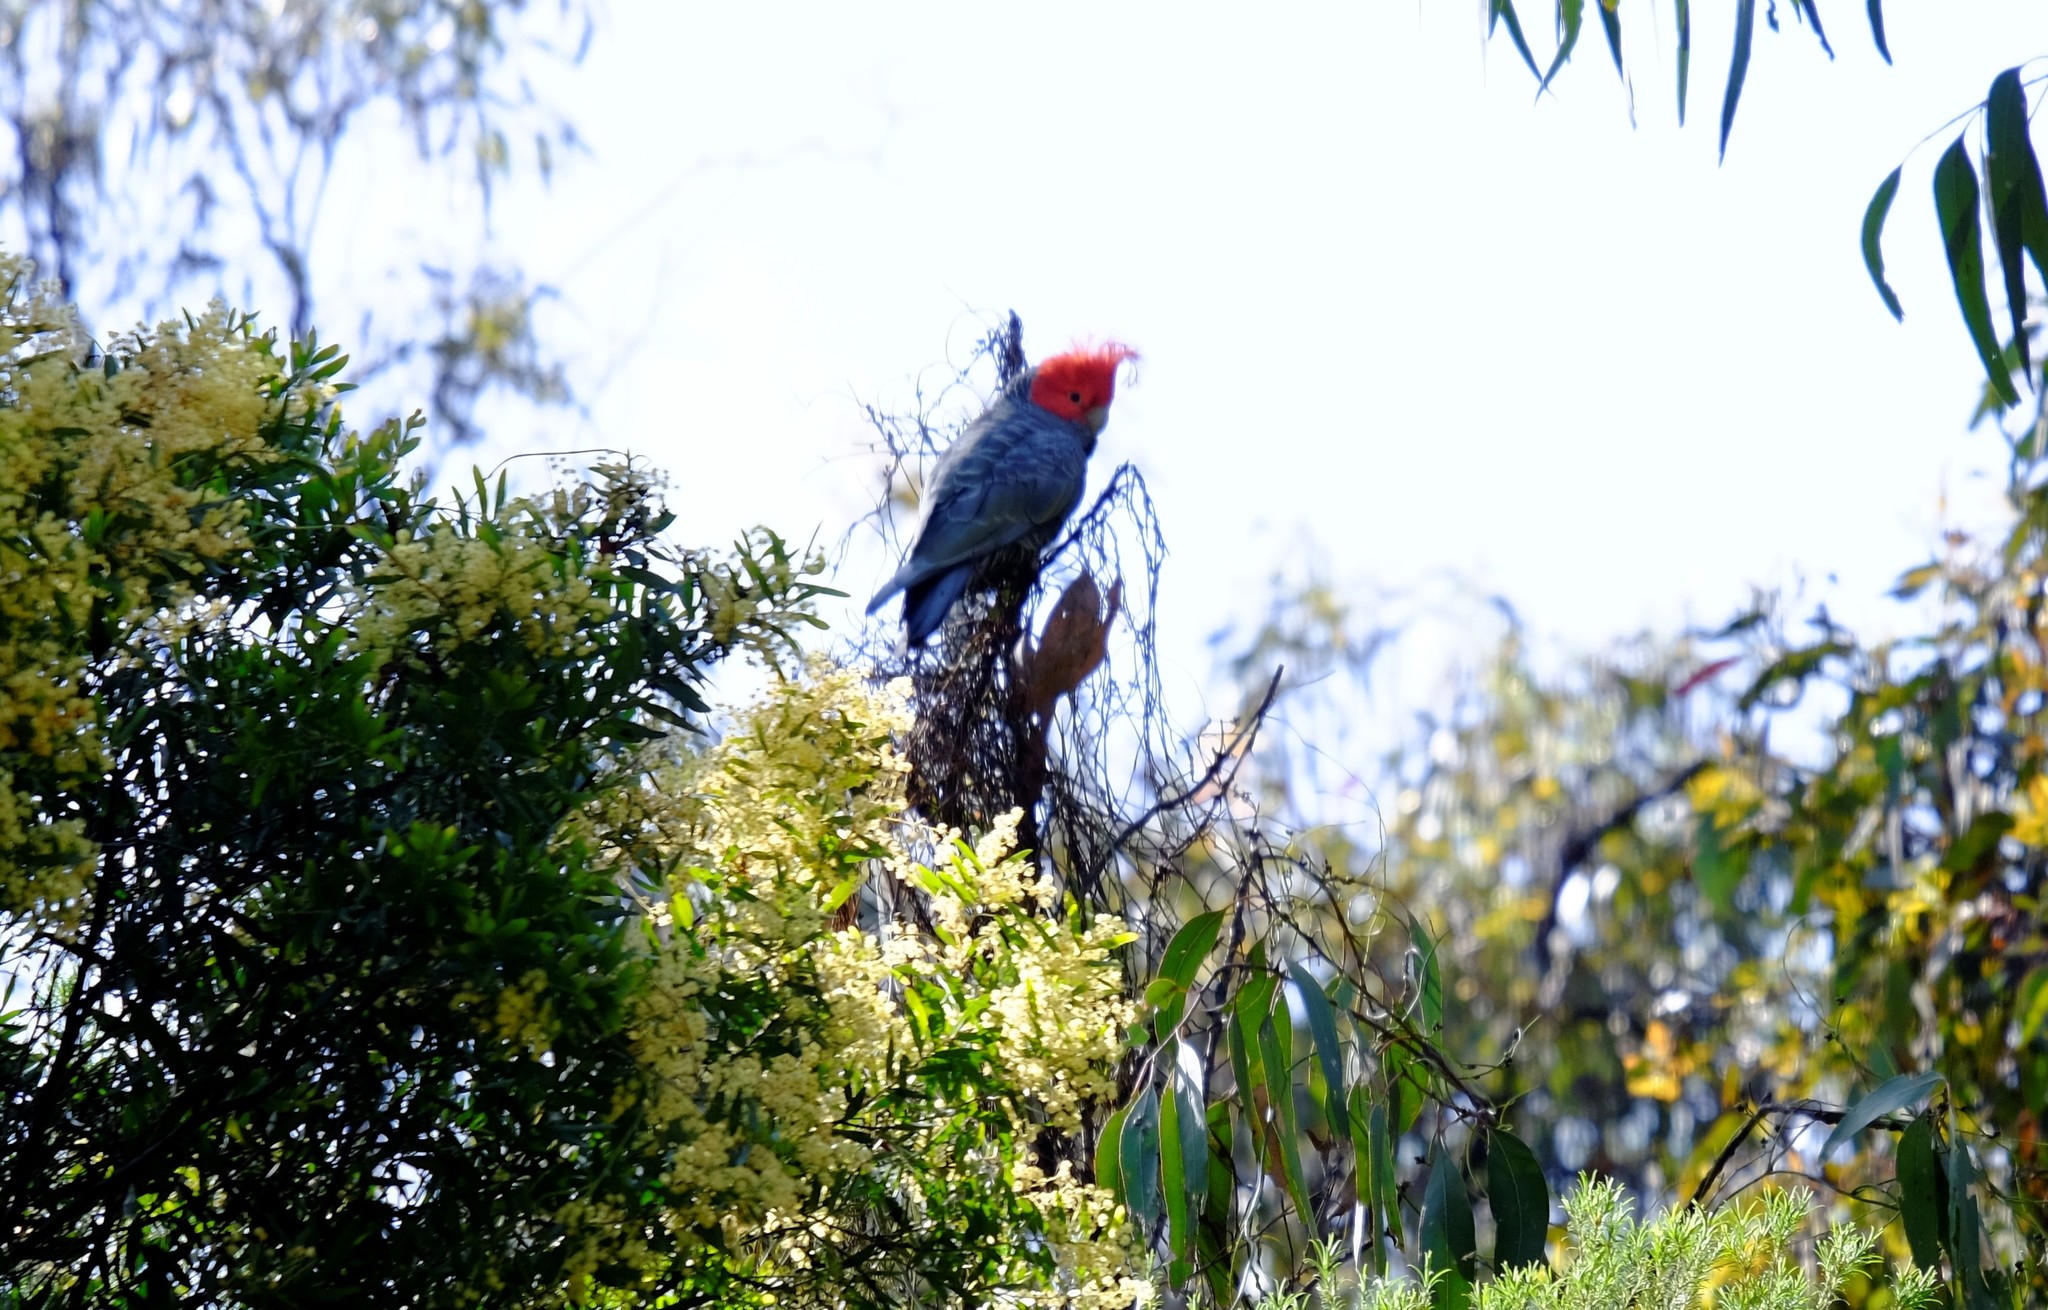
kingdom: Animalia
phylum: Chordata
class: Aves
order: Psittaciformes
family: Psittacidae
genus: Callocephalon
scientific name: Callocephalon fimbriatum
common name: Gang-gang cockatoo
